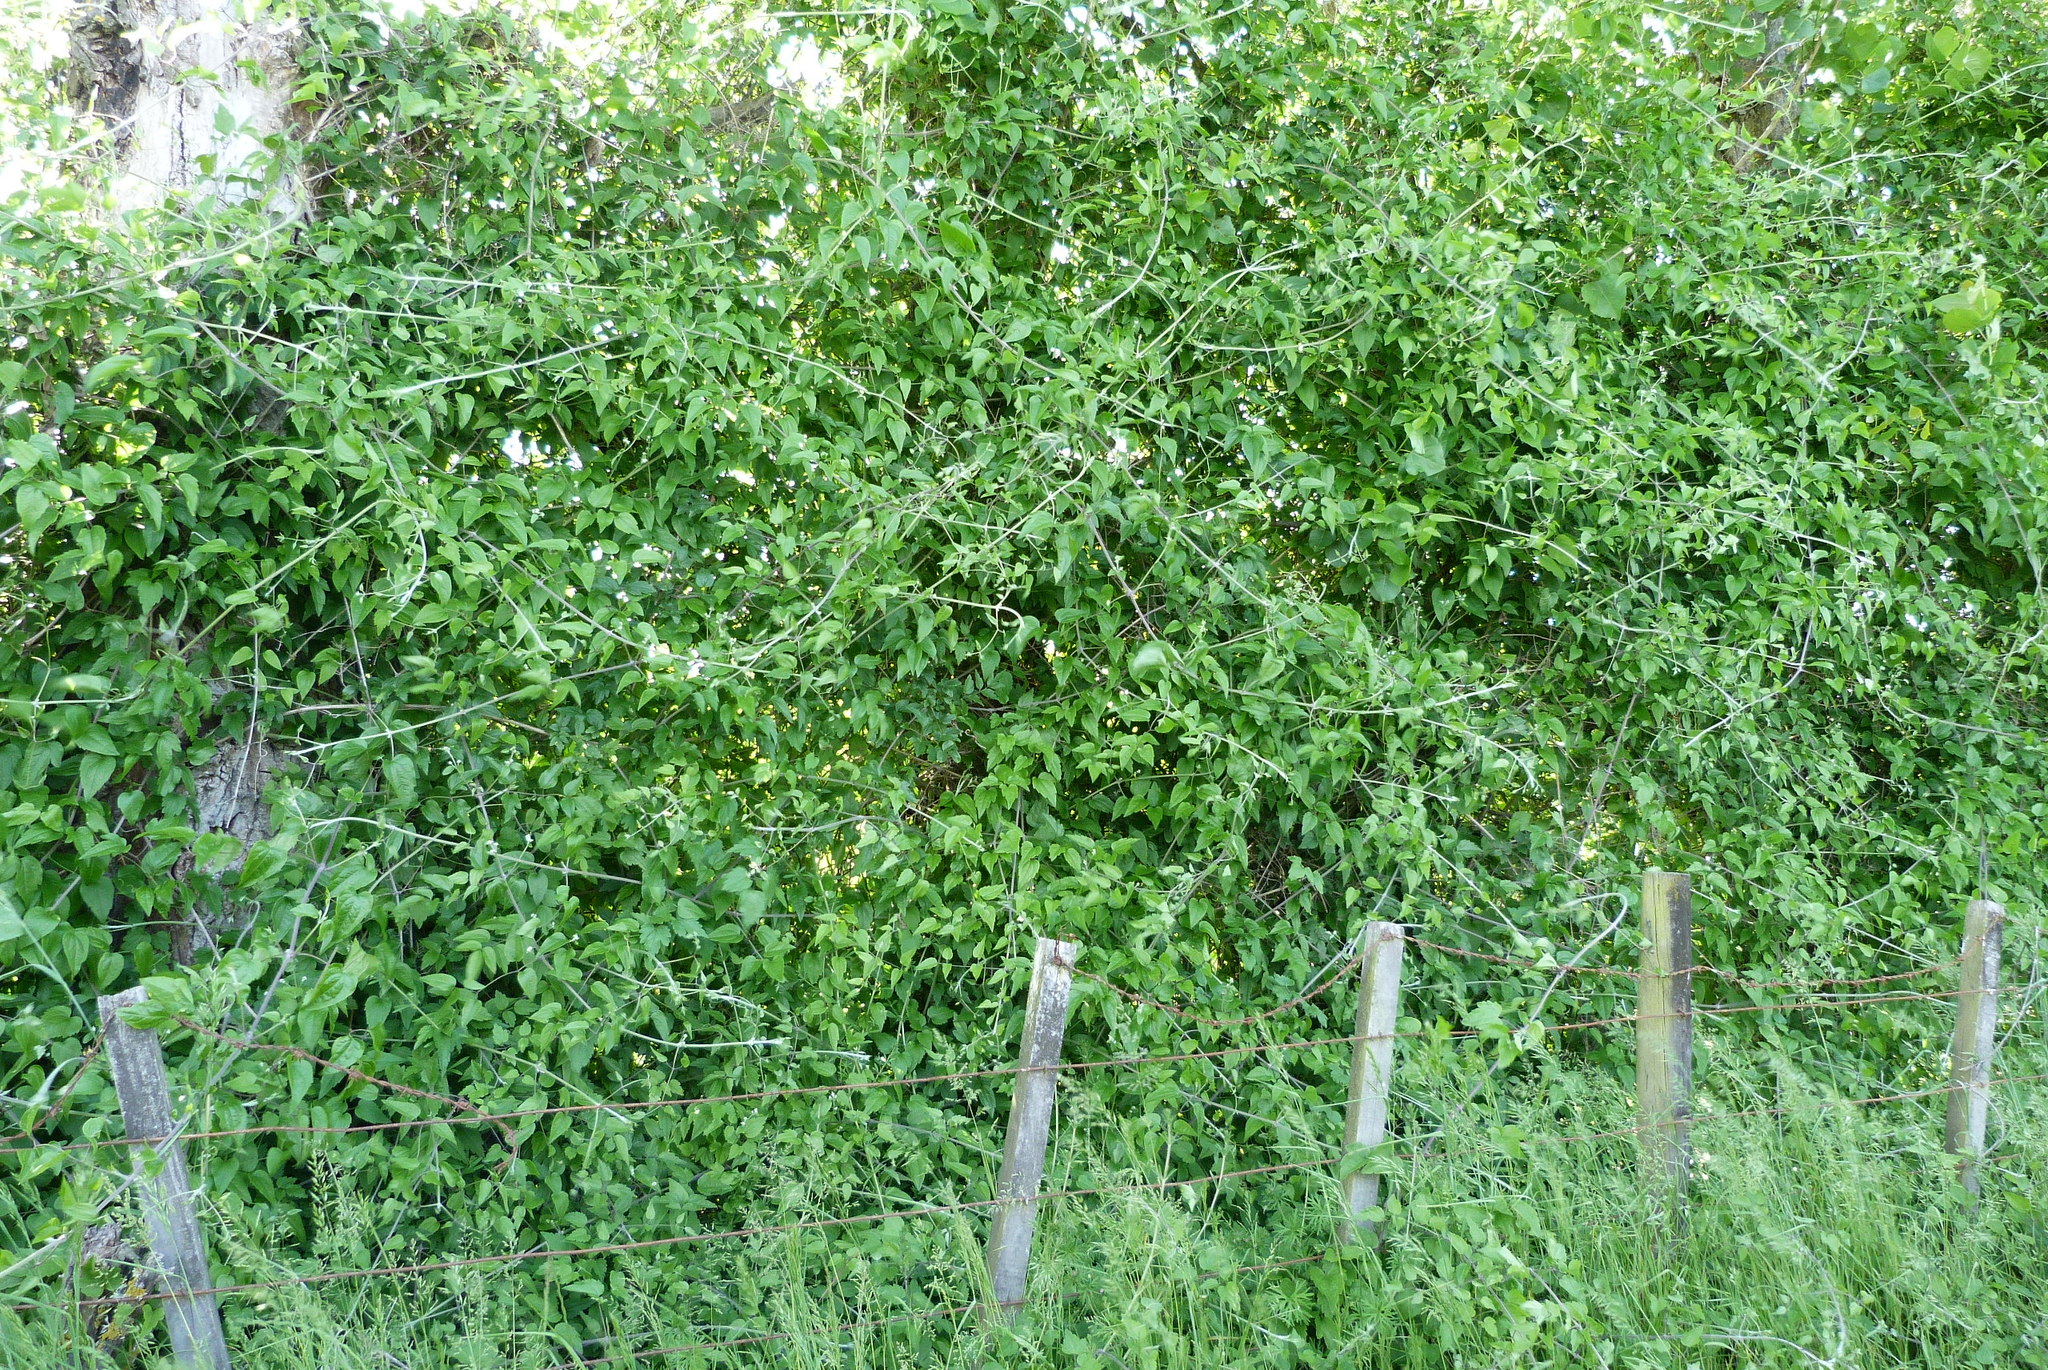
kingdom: Plantae
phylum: Tracheophyta
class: Magnoliopsida
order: Ranunculales
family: Ranunculaceae
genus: Clematis
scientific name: Clematis vitalba
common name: Evergreen clematis
